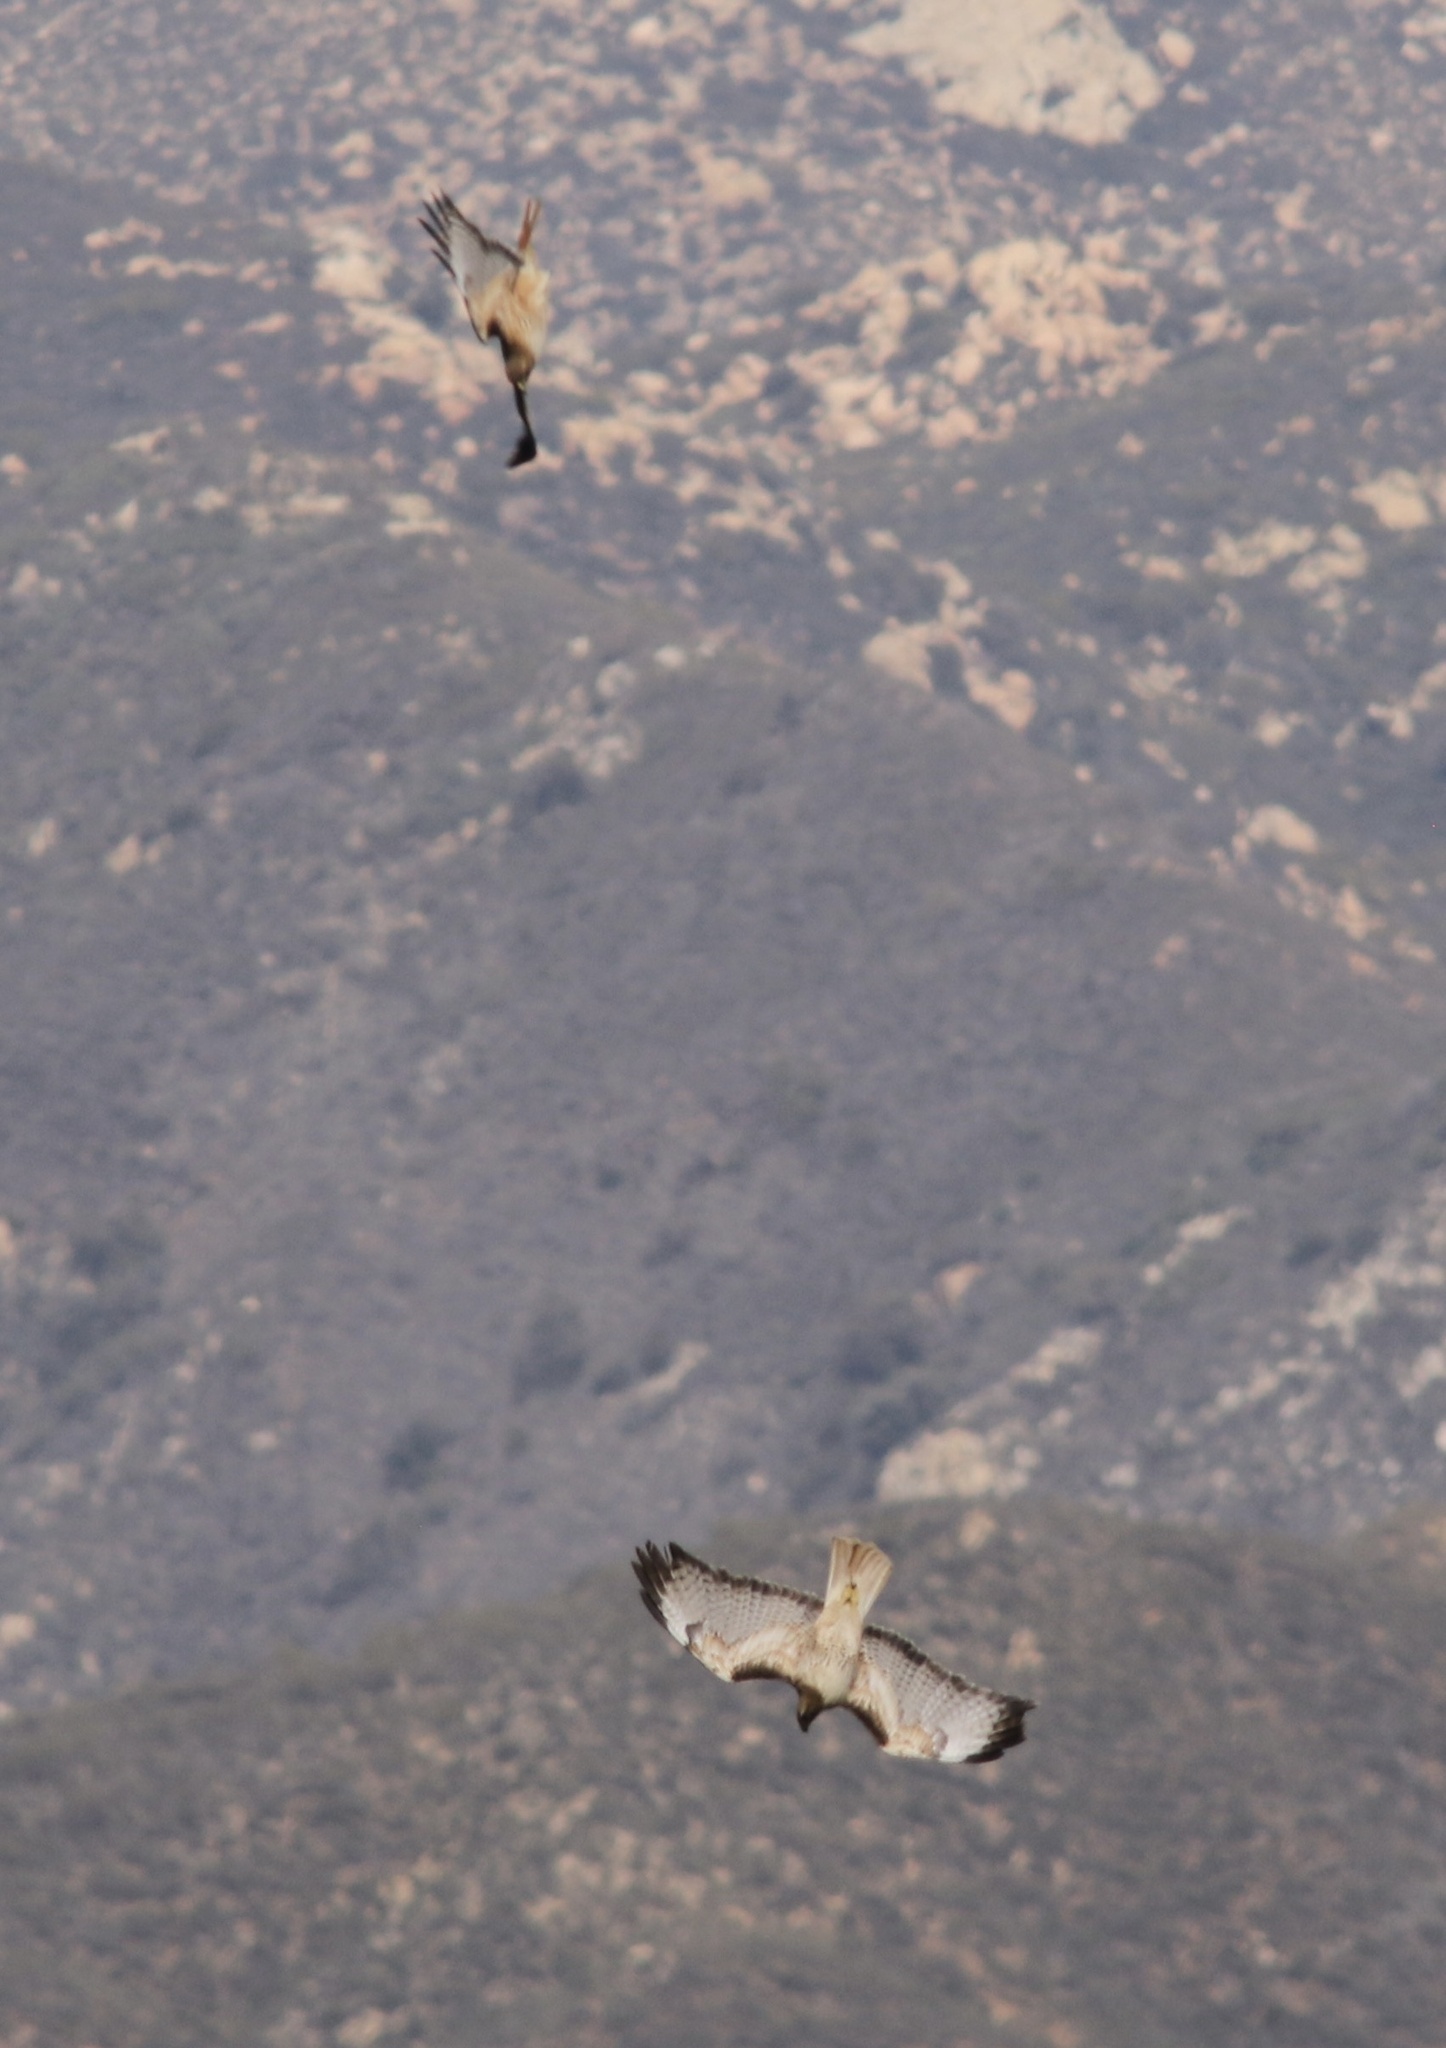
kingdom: Animalia
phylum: Chordata
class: Aves
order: Accipitriformes
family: Accipitridae
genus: Buteo
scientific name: Buteo jamaicensis
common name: Red-tailed hawk
